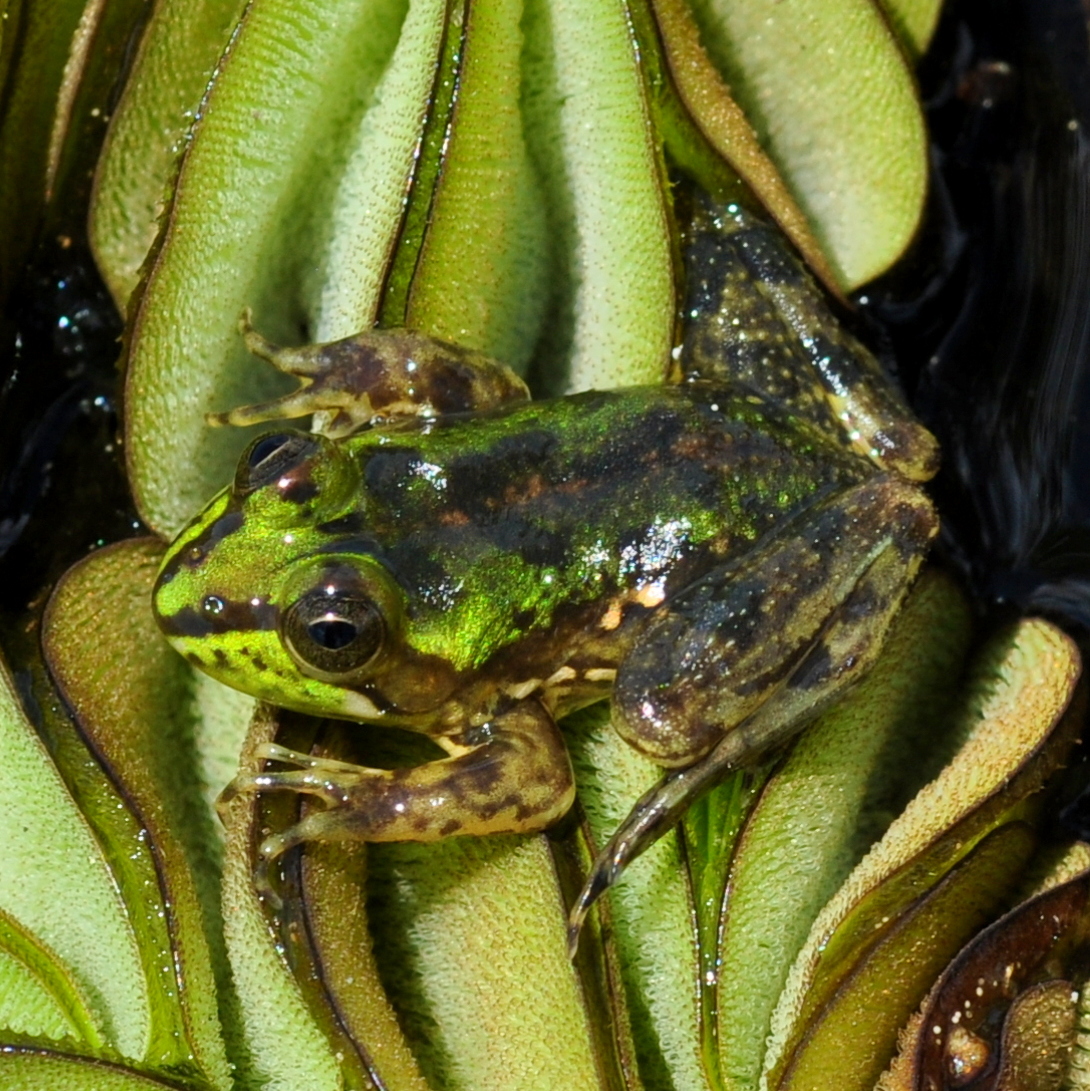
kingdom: Animalia
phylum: Chordata
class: Amphibia
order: Anura
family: Hylidae
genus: Pseudis
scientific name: Pseudis minuta
